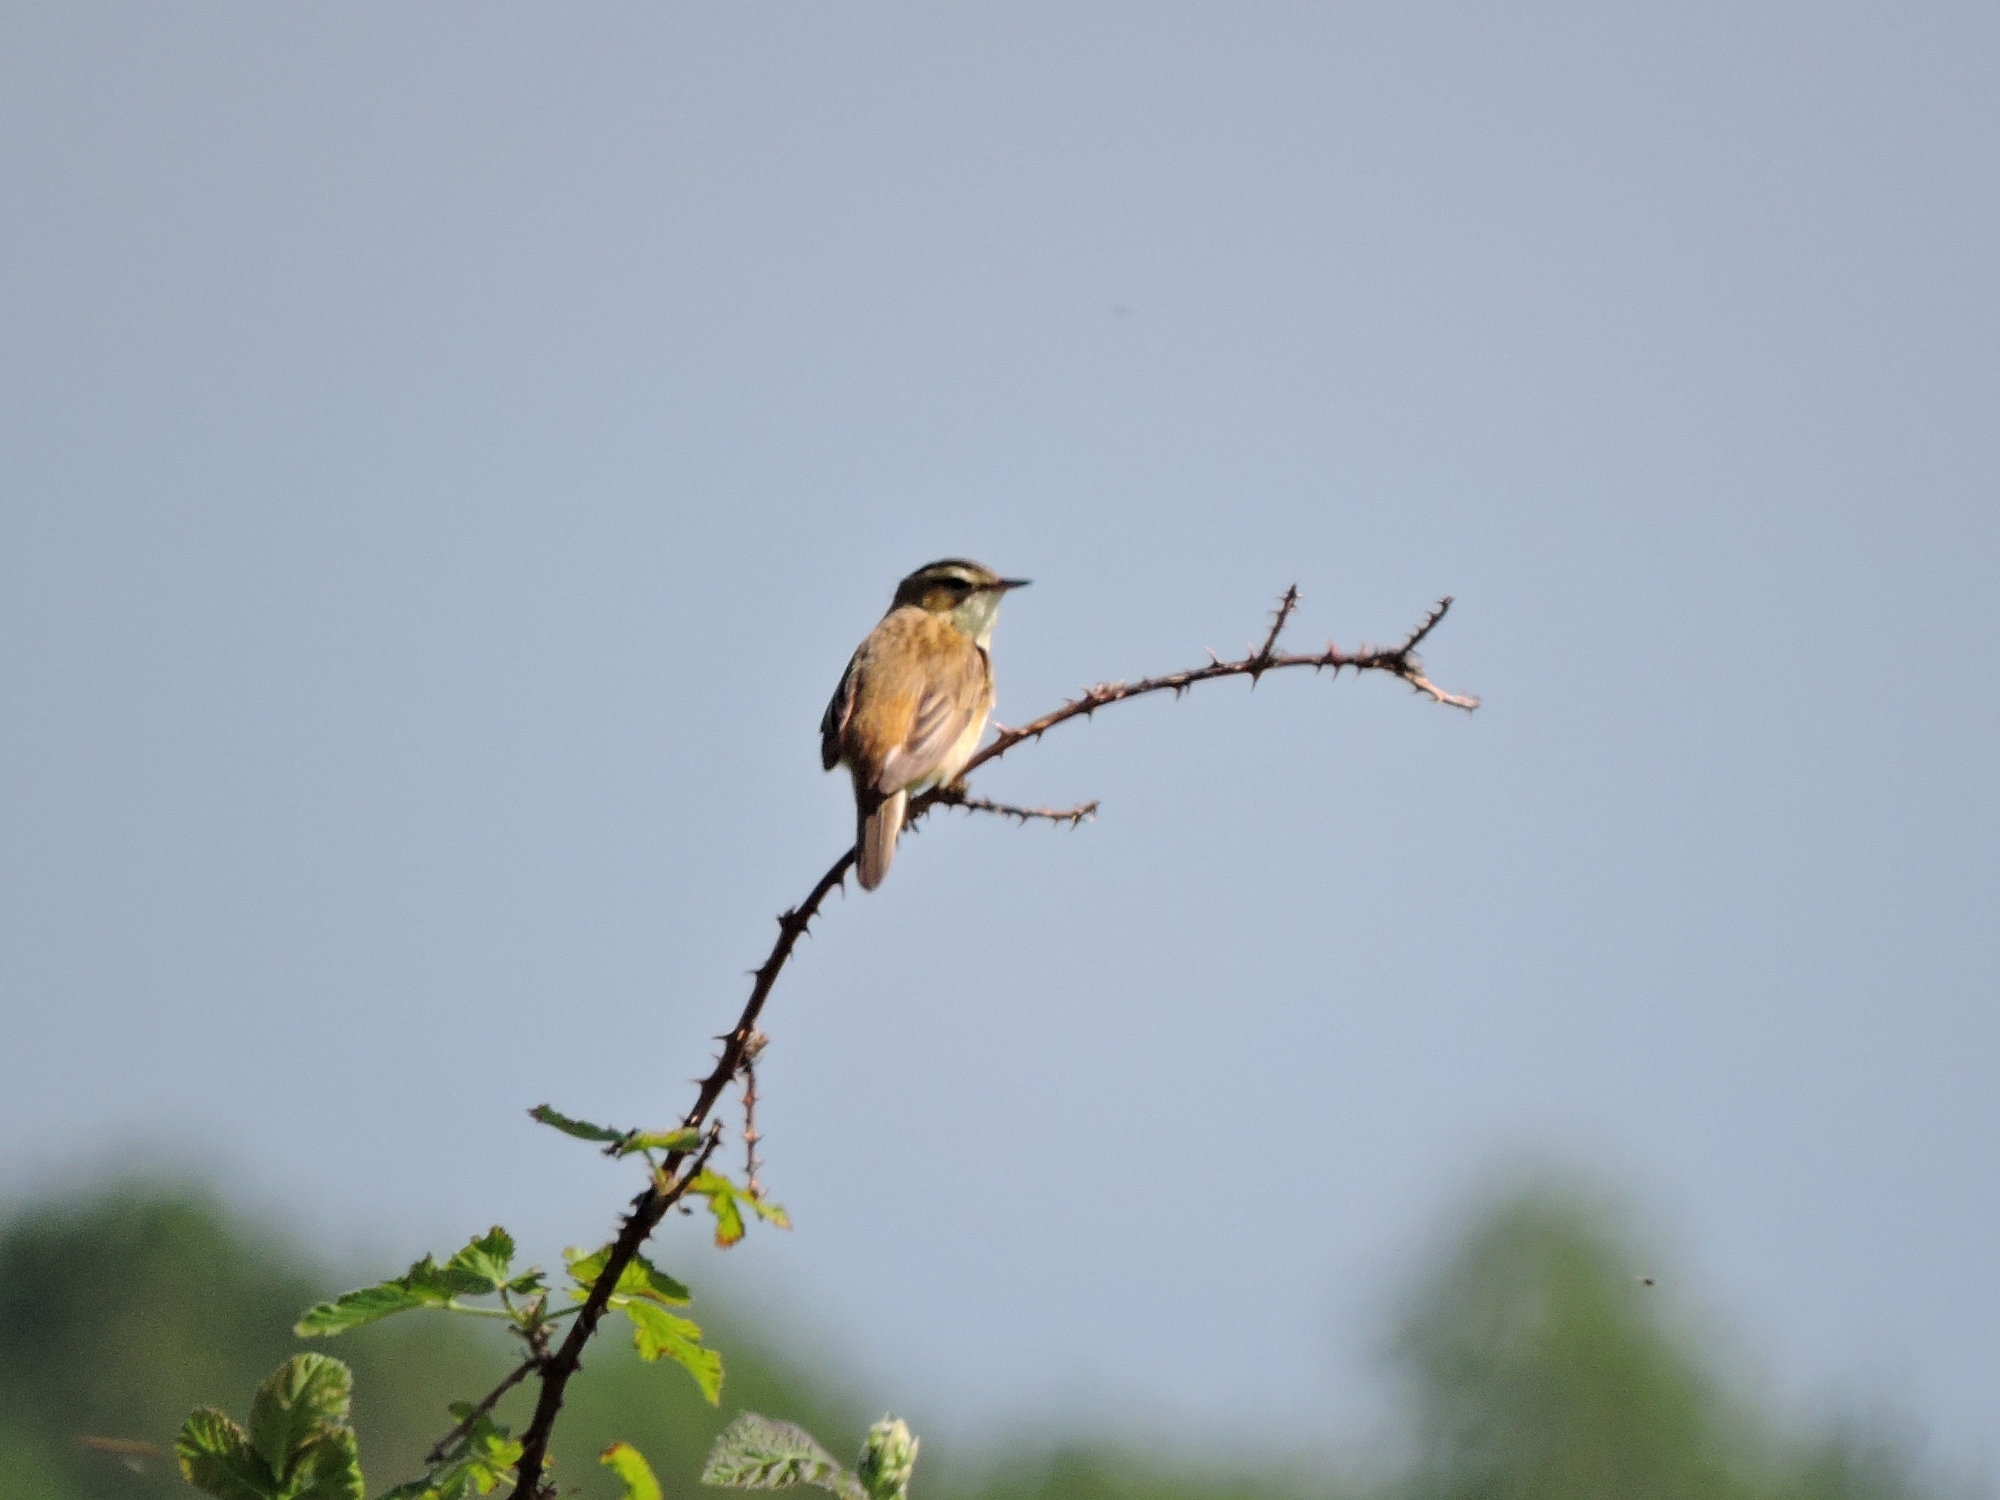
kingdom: Animalia
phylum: Chordata
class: Aves
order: Passeriformes
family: Acrocephalidae
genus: Acrocephalus
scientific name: Acrocephalus schoenobaenus
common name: Sedge warbler
